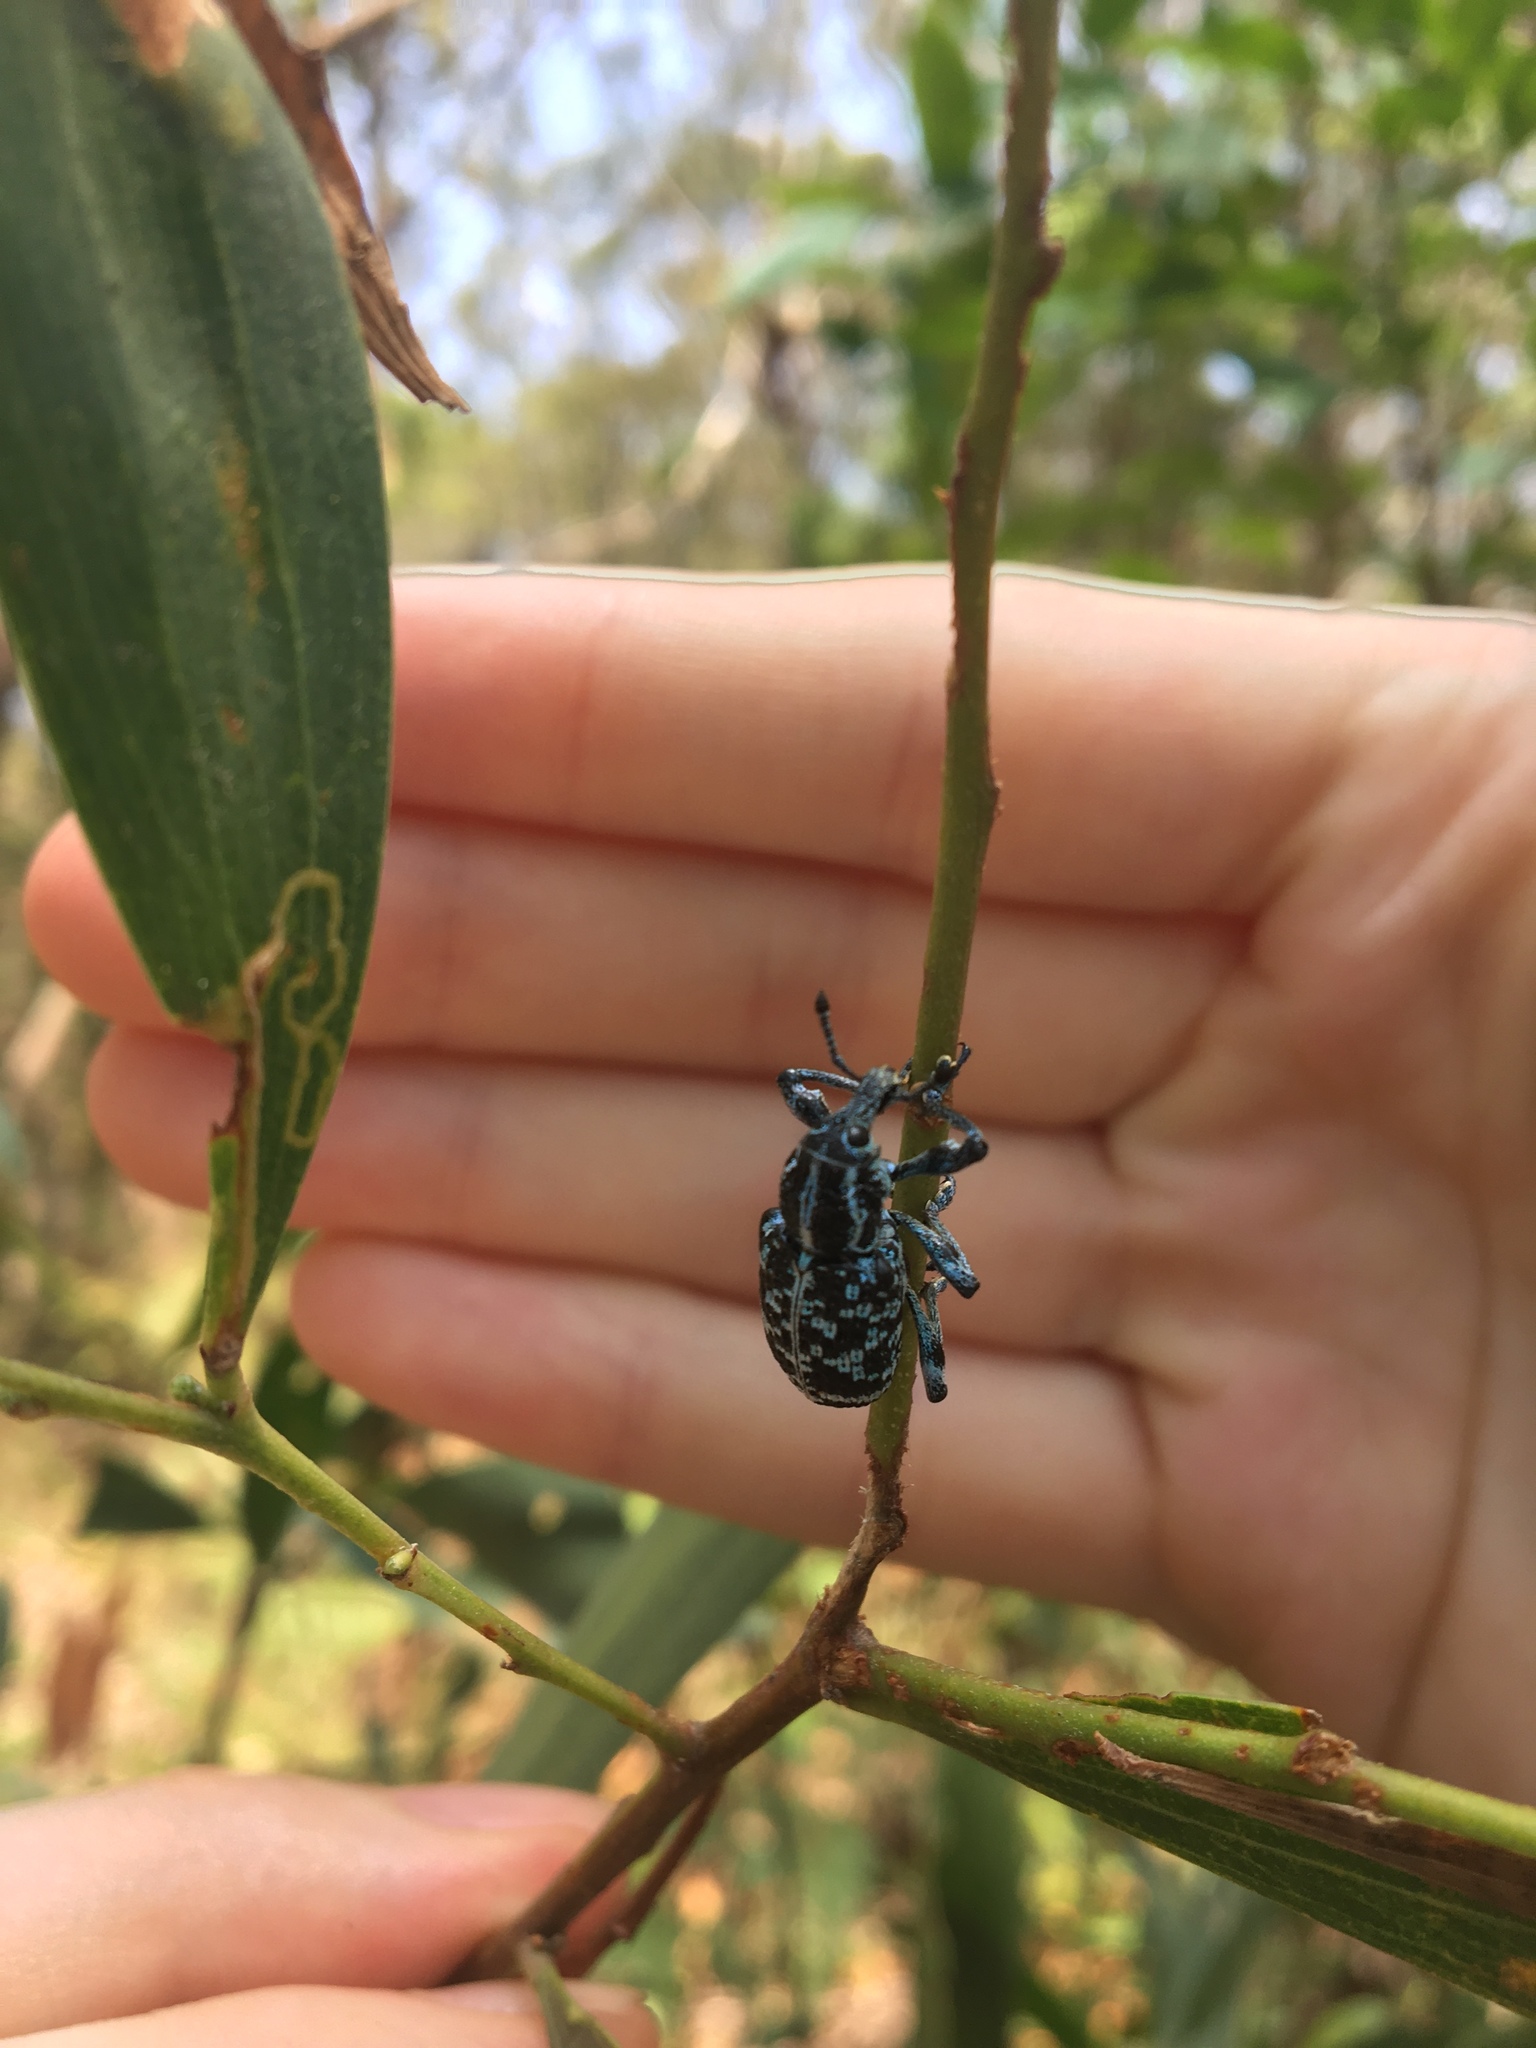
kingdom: Animalia
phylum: Arthropoda
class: Insecta
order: Coleoptera
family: Curculionidae
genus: Chrysolopus
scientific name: Chrysolopus spectabilis
